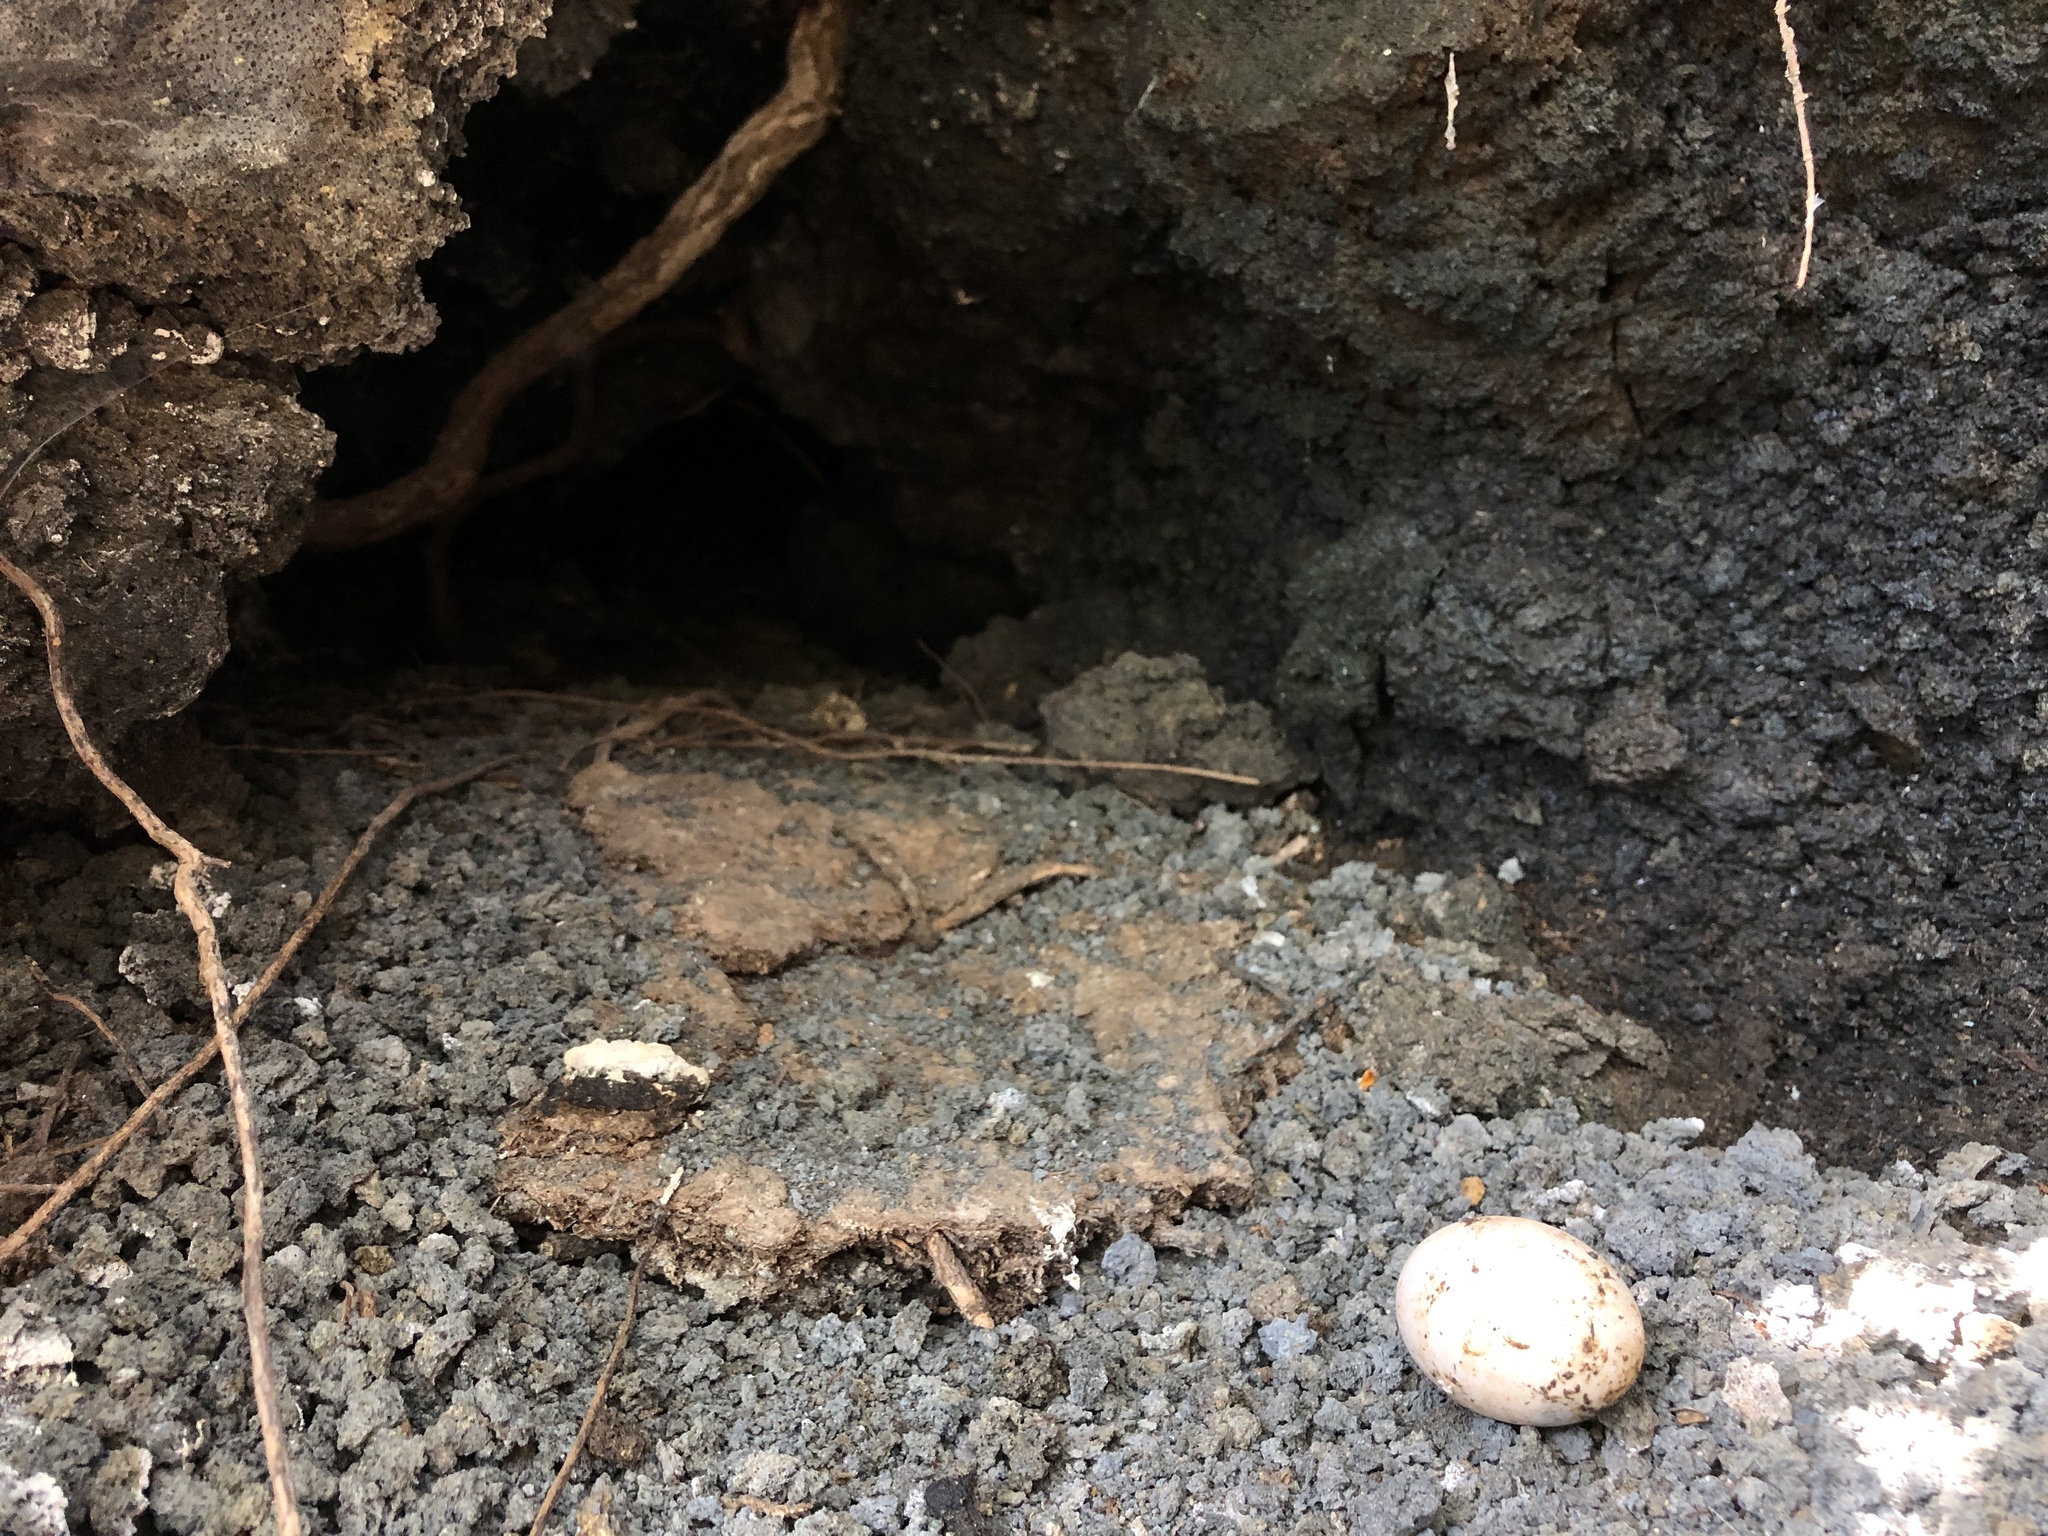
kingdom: Animalia
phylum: Chordata
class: Aves
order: Columbiformes
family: Columbidae
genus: Columba
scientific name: Columba livia
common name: Rock pigeon
